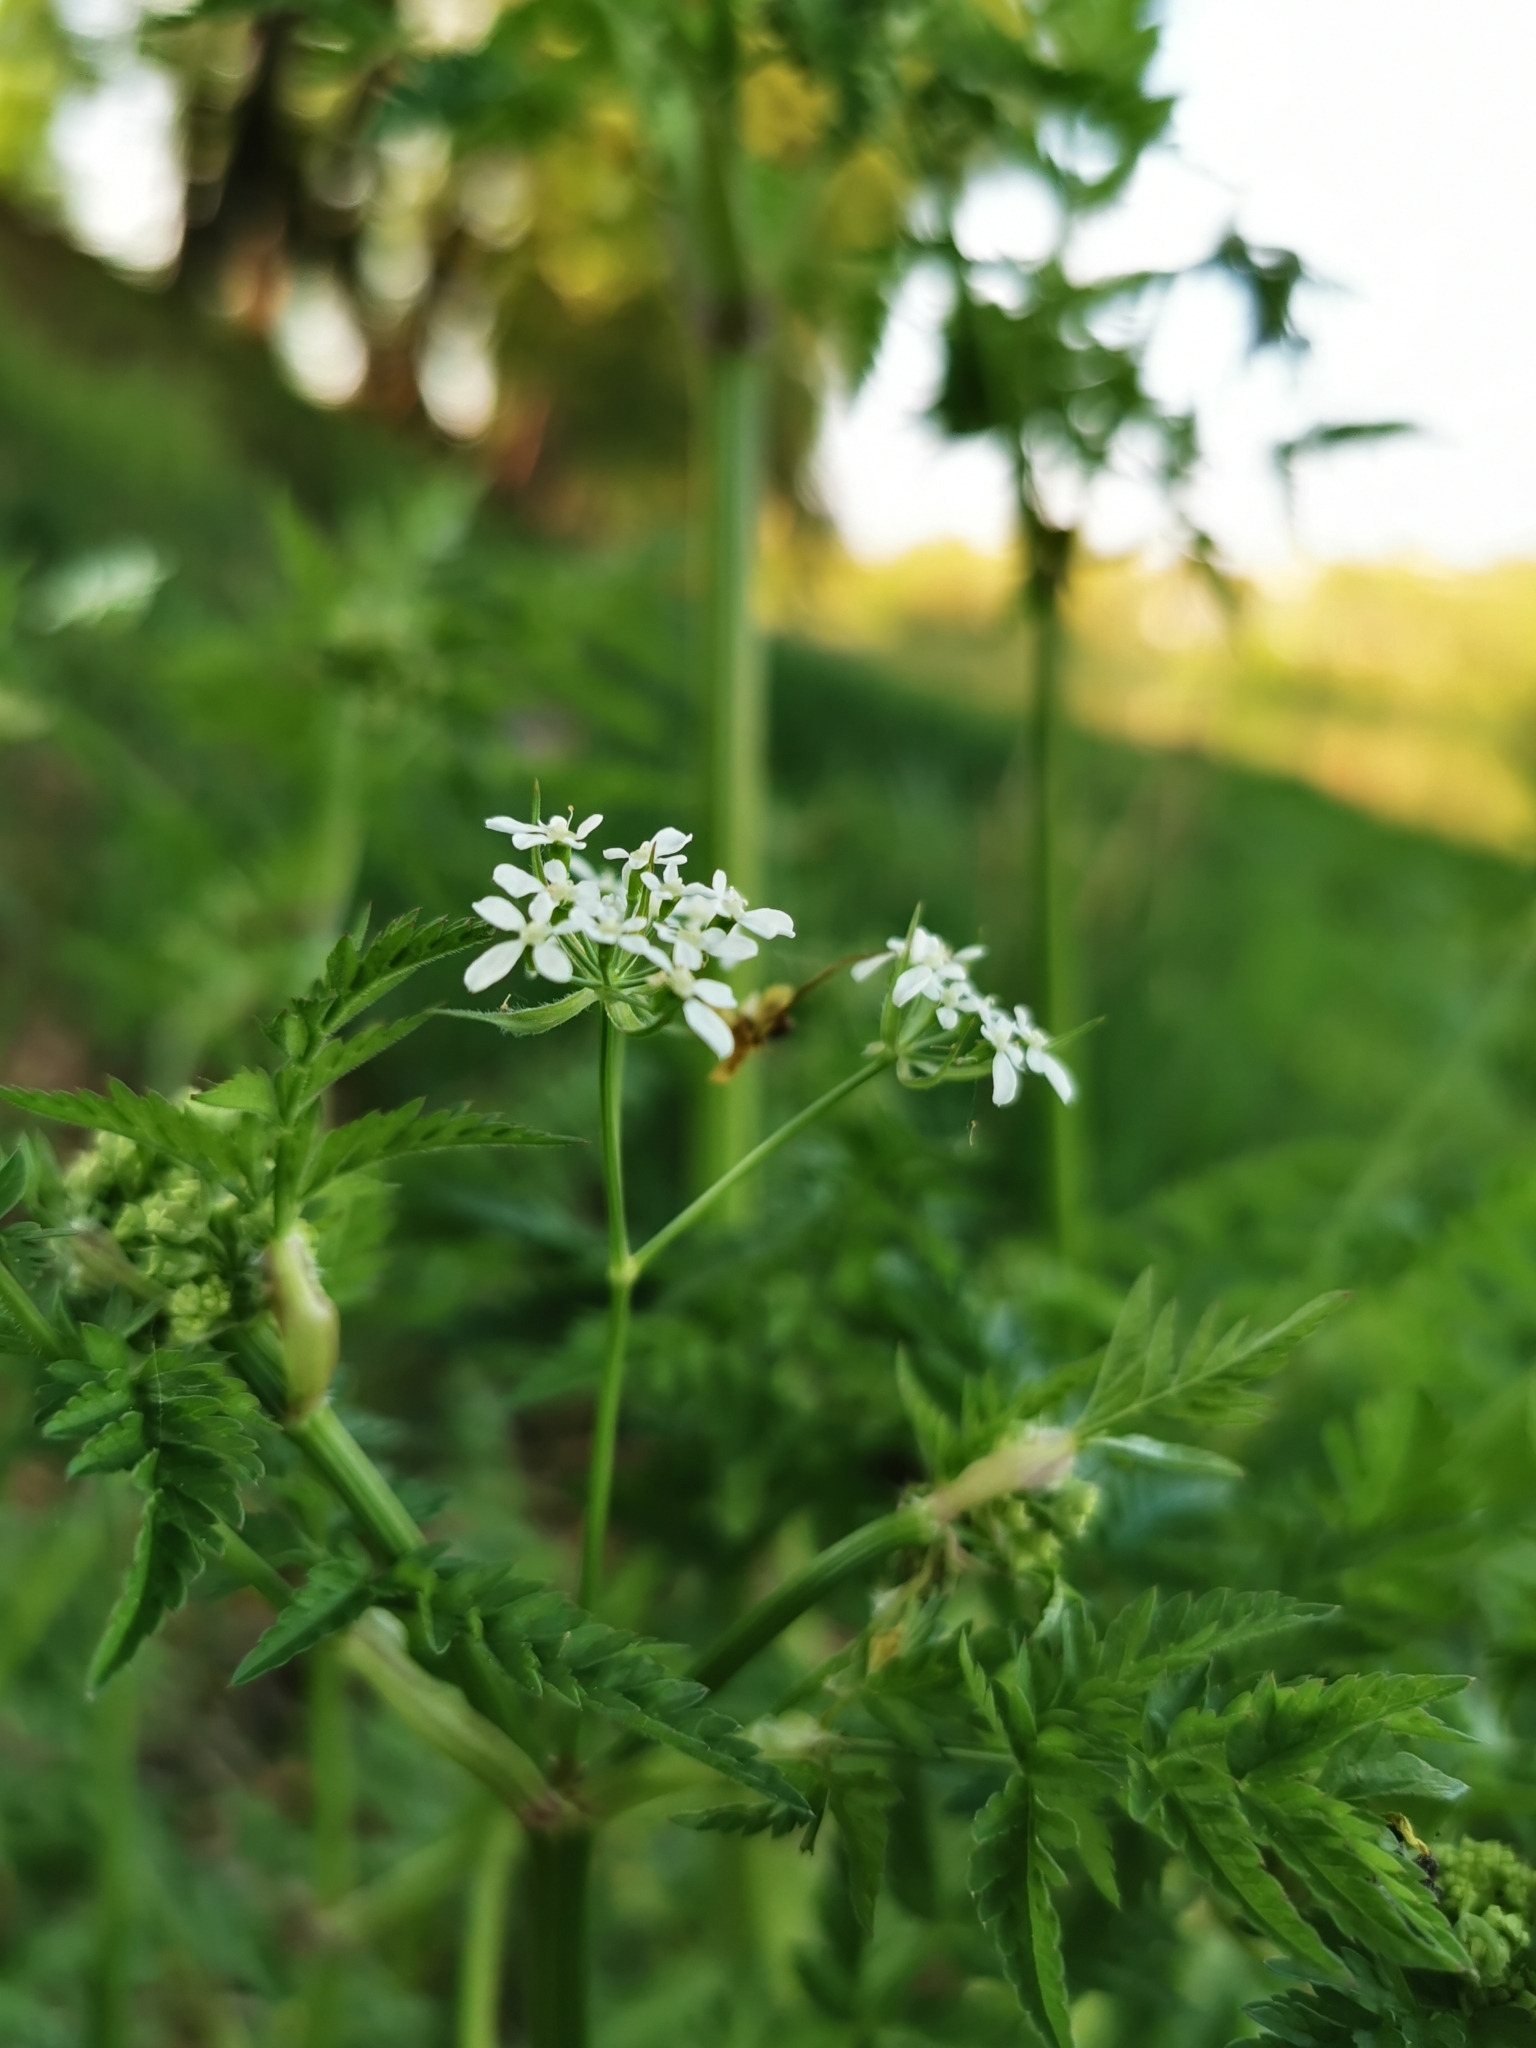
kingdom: Plantae
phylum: Tracheophyta
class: Magnoliopsida
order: Apiales
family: Apiaceae
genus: Anthriscus
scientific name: Anthriscus sylvestris
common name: Cow parsley
